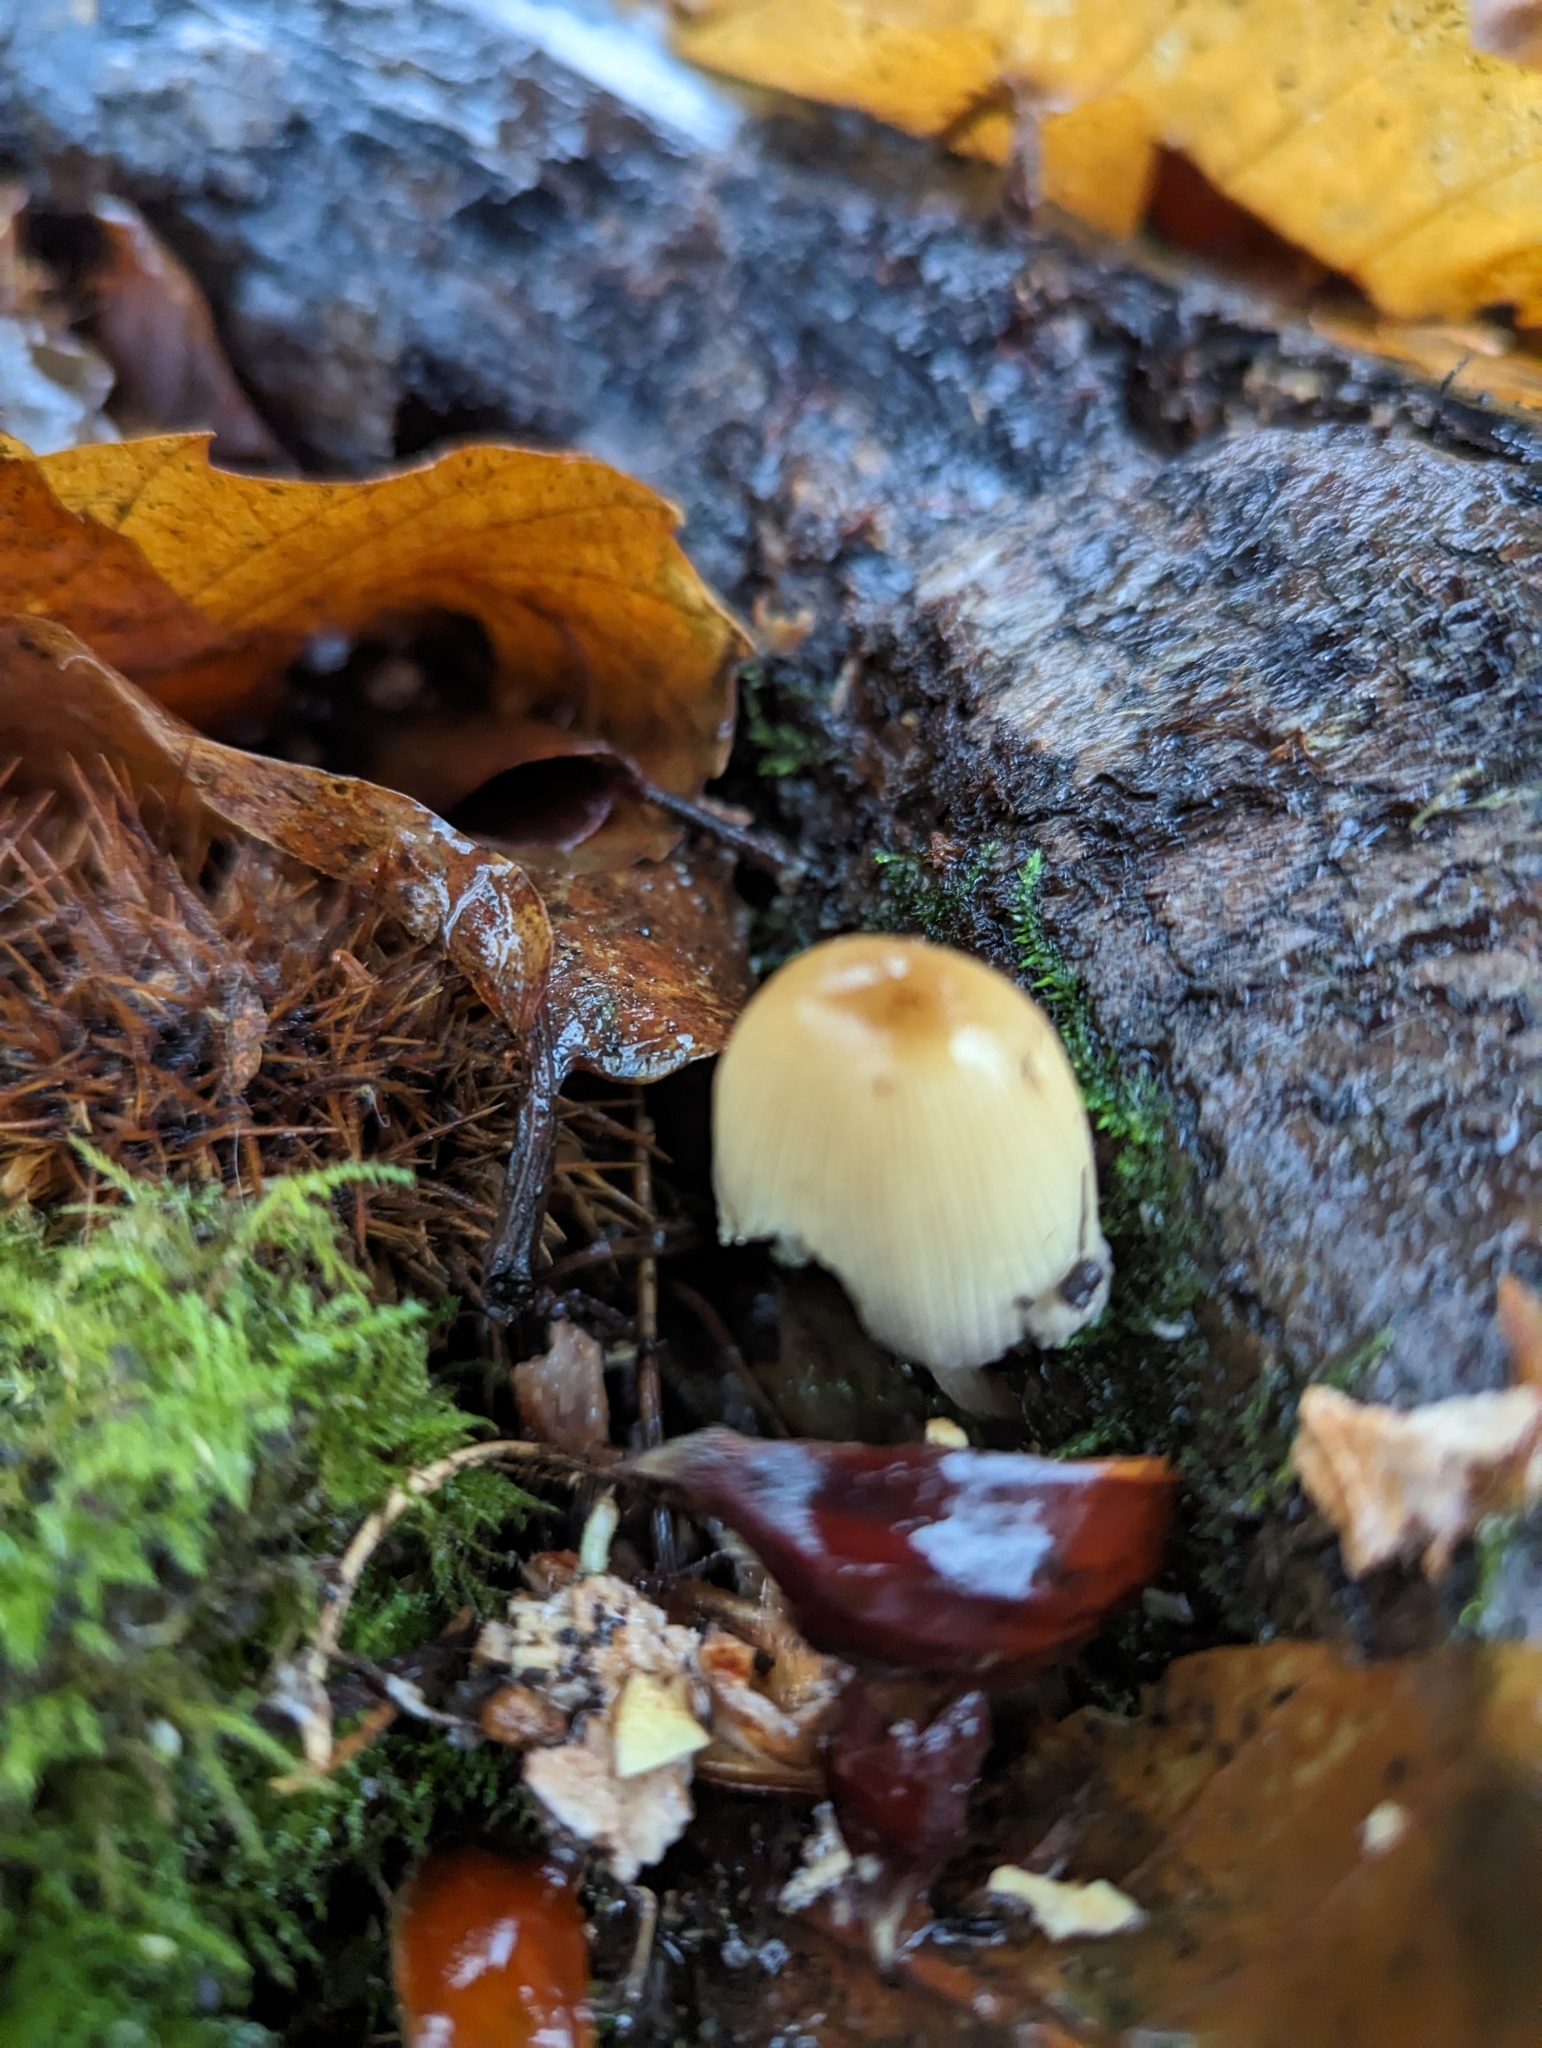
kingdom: Fungi
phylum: Basidiomycota
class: Agaricomycetes
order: Agaricales
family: Psathyrellaceae
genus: Coprinellus
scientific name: Coprinellus micaceus
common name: Glistening ink-cap
